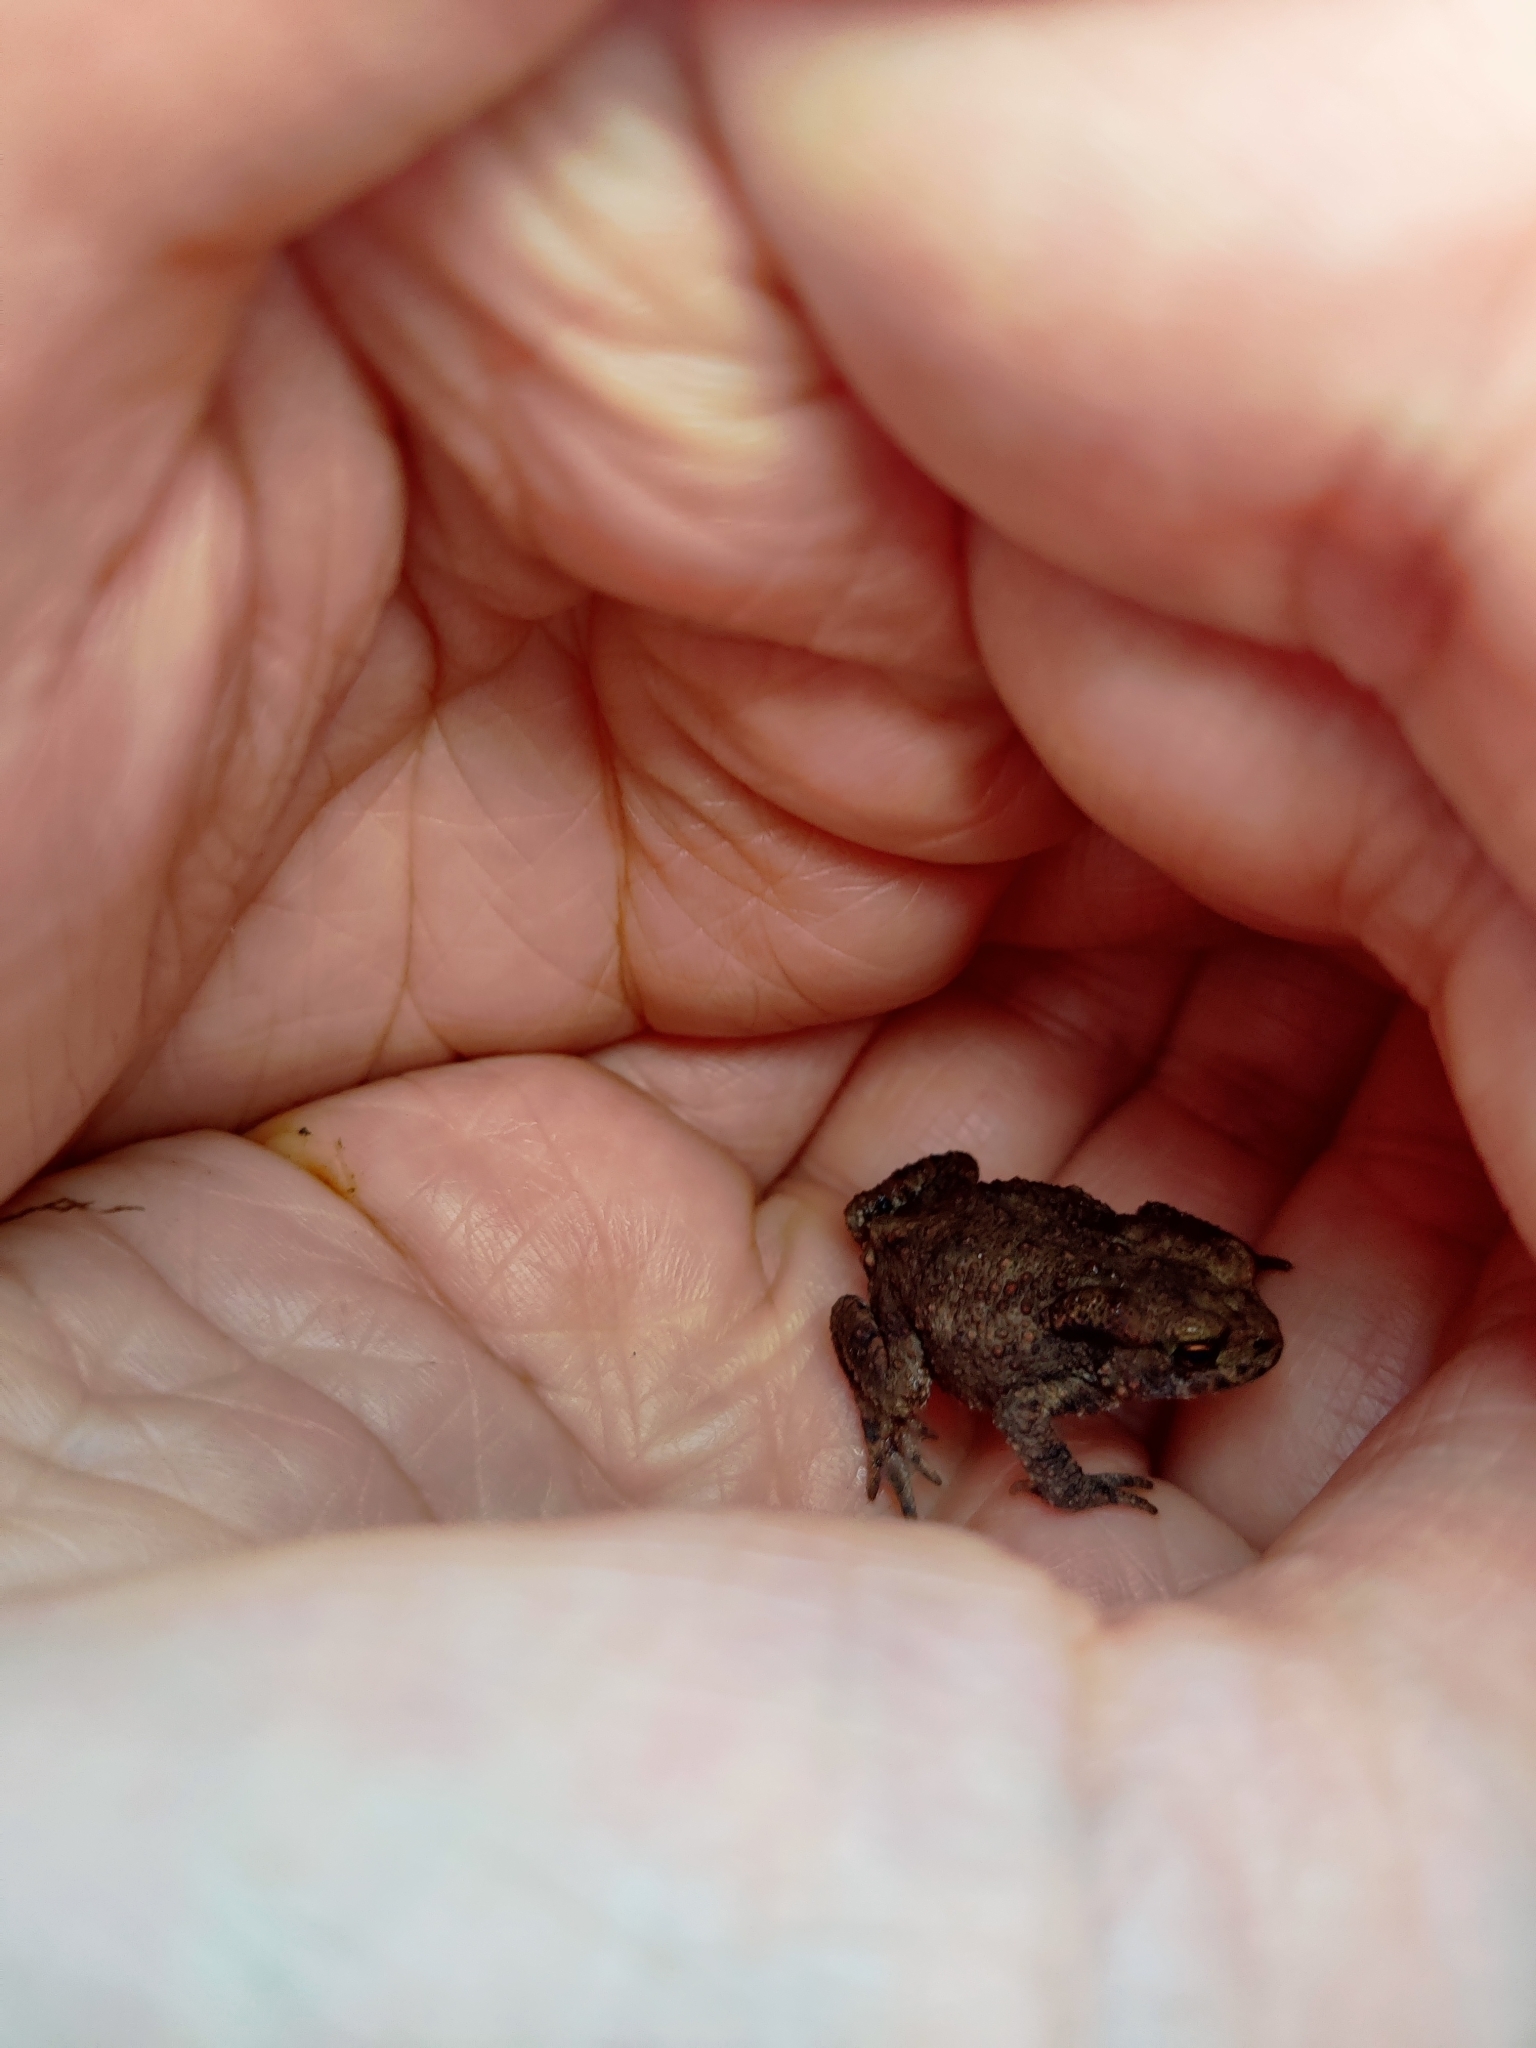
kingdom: Animalia
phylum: Chordata
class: Amphibia
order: Anura
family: Bufonidae
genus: Bufo
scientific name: Bufo bufo
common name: Common toad
